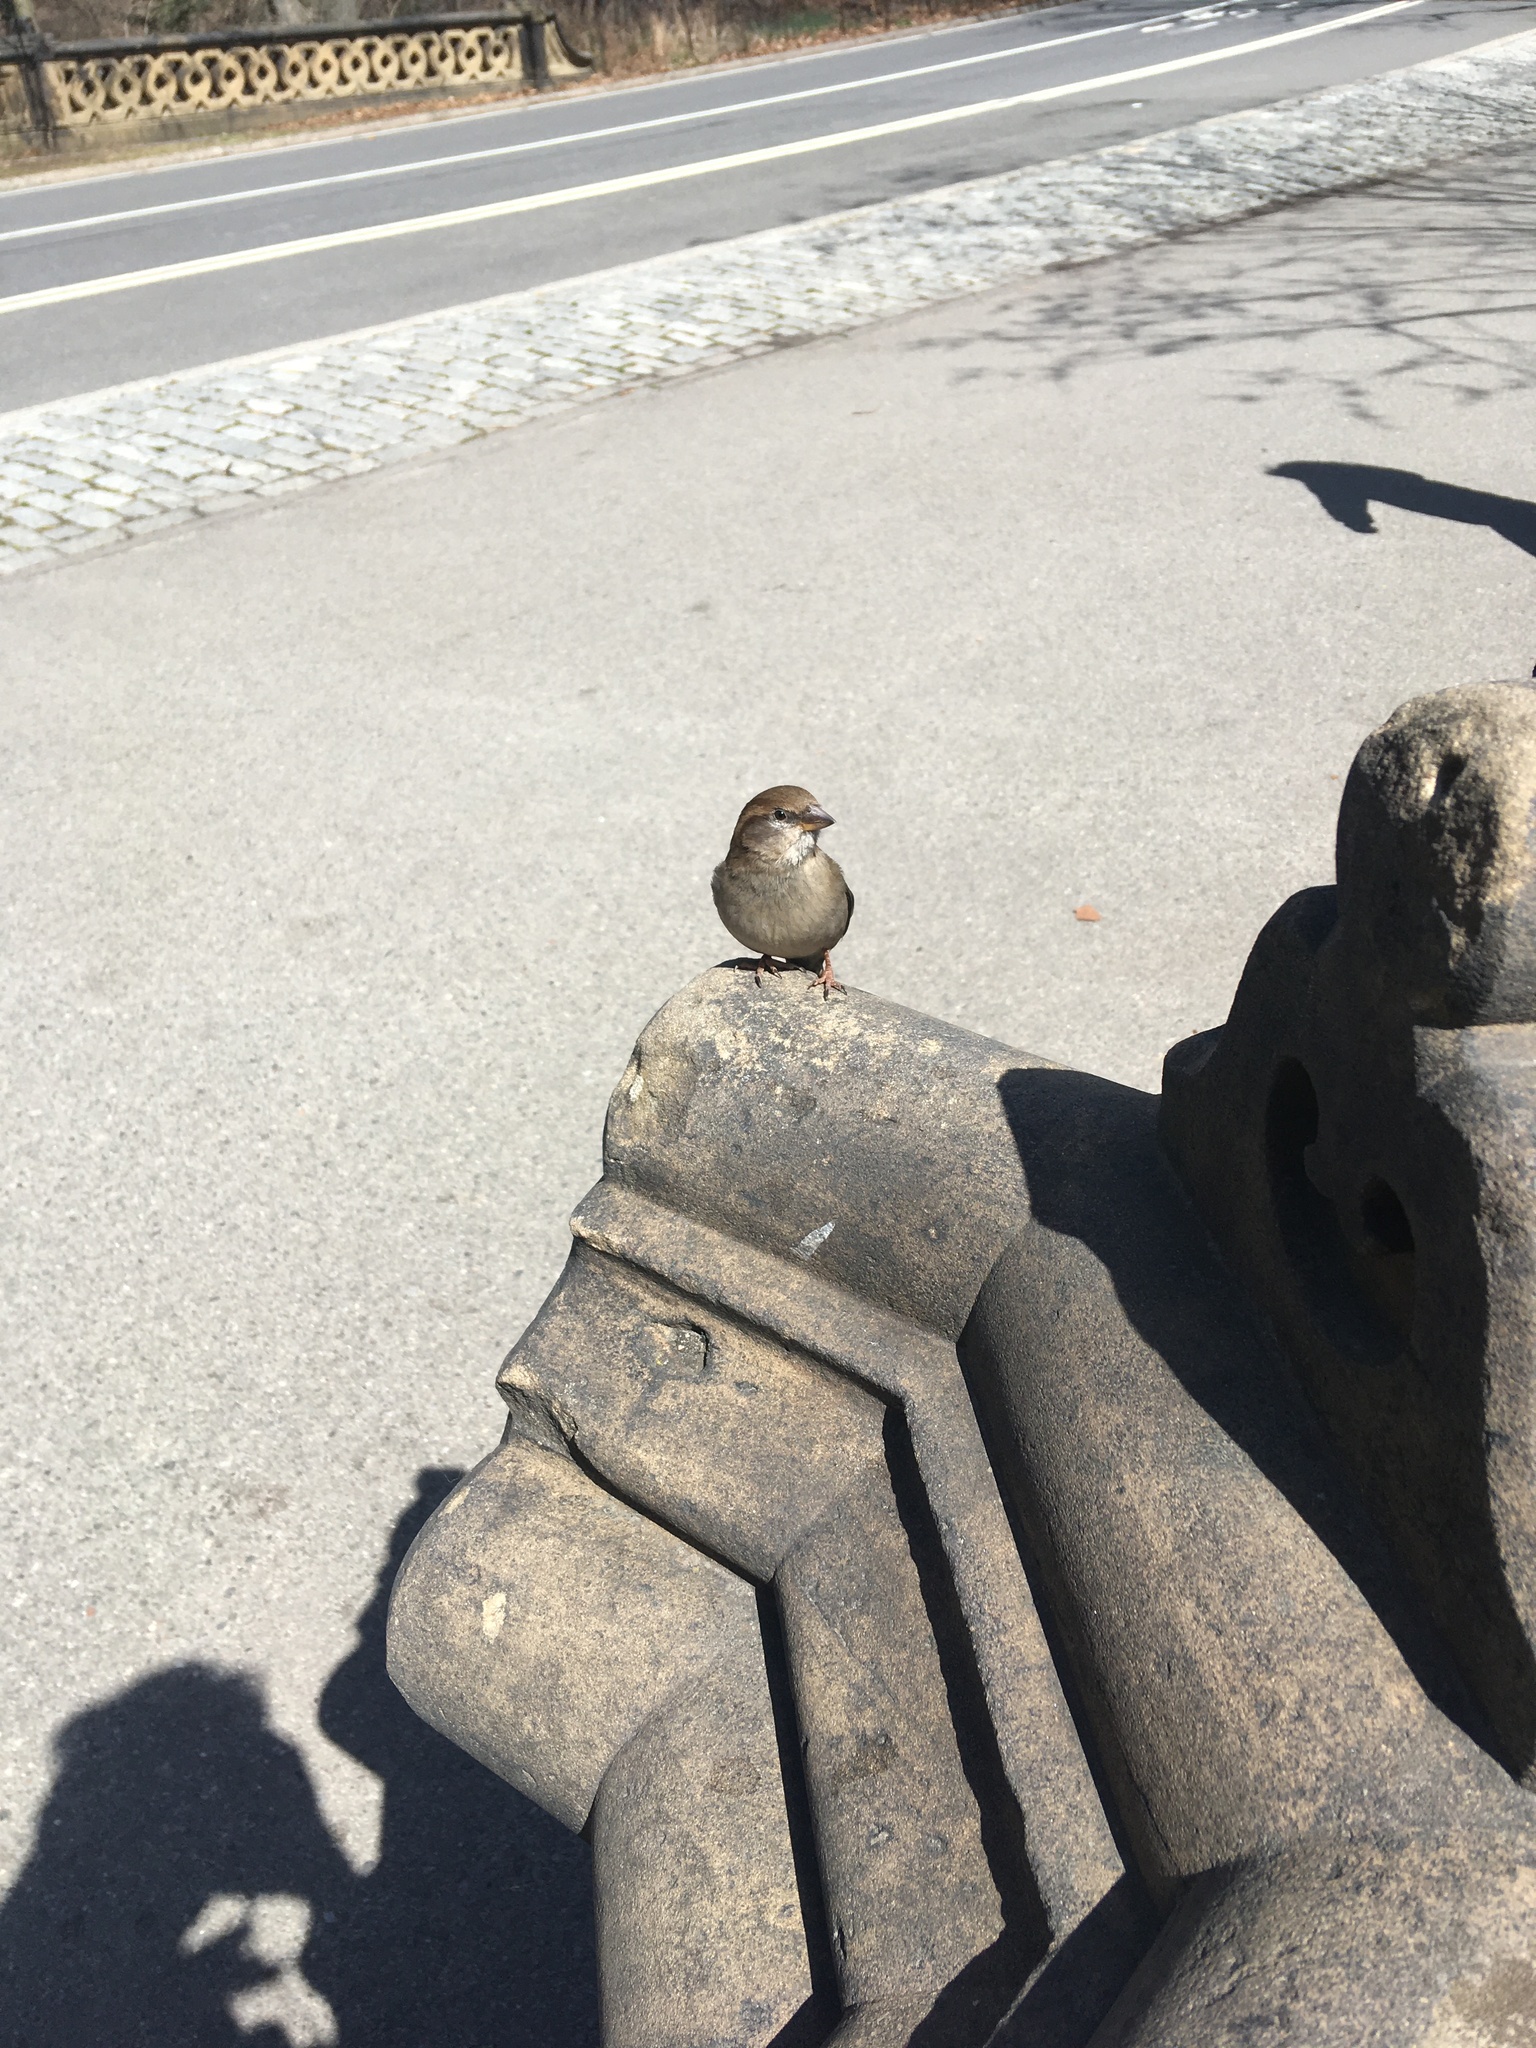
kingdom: Animalia
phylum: Chordata
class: Aves
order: Passeriformes
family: Passeridae
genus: Passer
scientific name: Passer domesticus
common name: House sparrow
